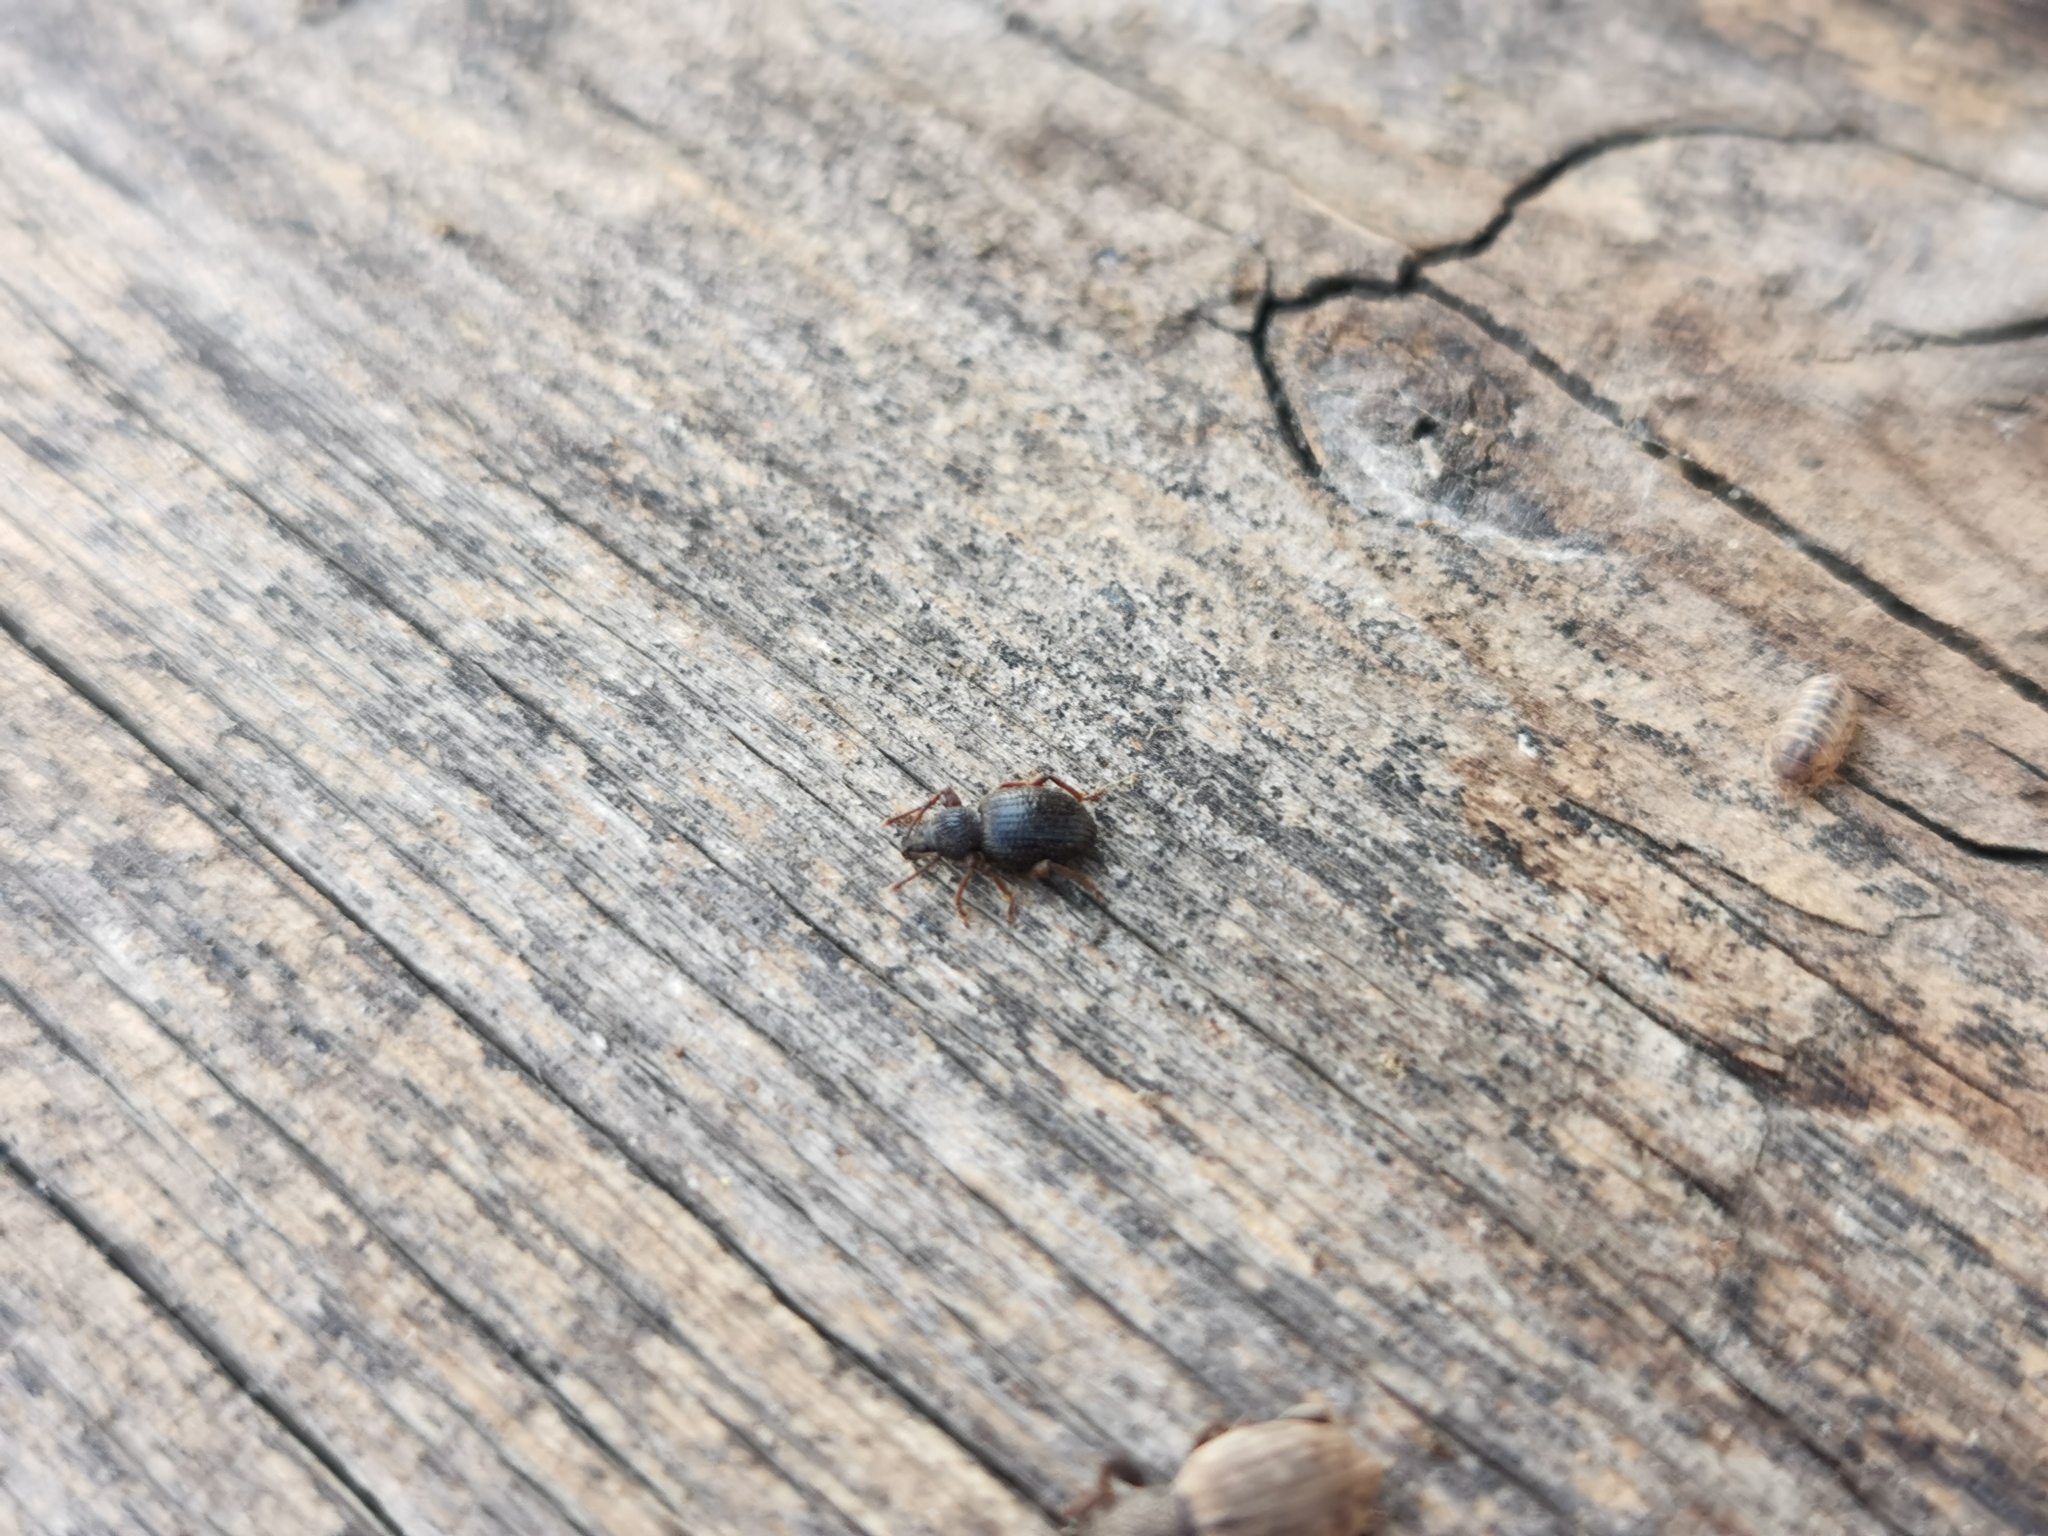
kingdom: Animalia
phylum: Arthropoda
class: Insecta
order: Coleoptera
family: Curculionidae
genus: Otiorhynchus
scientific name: Otiorhynchus ovatus
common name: Strawberry root weevil
